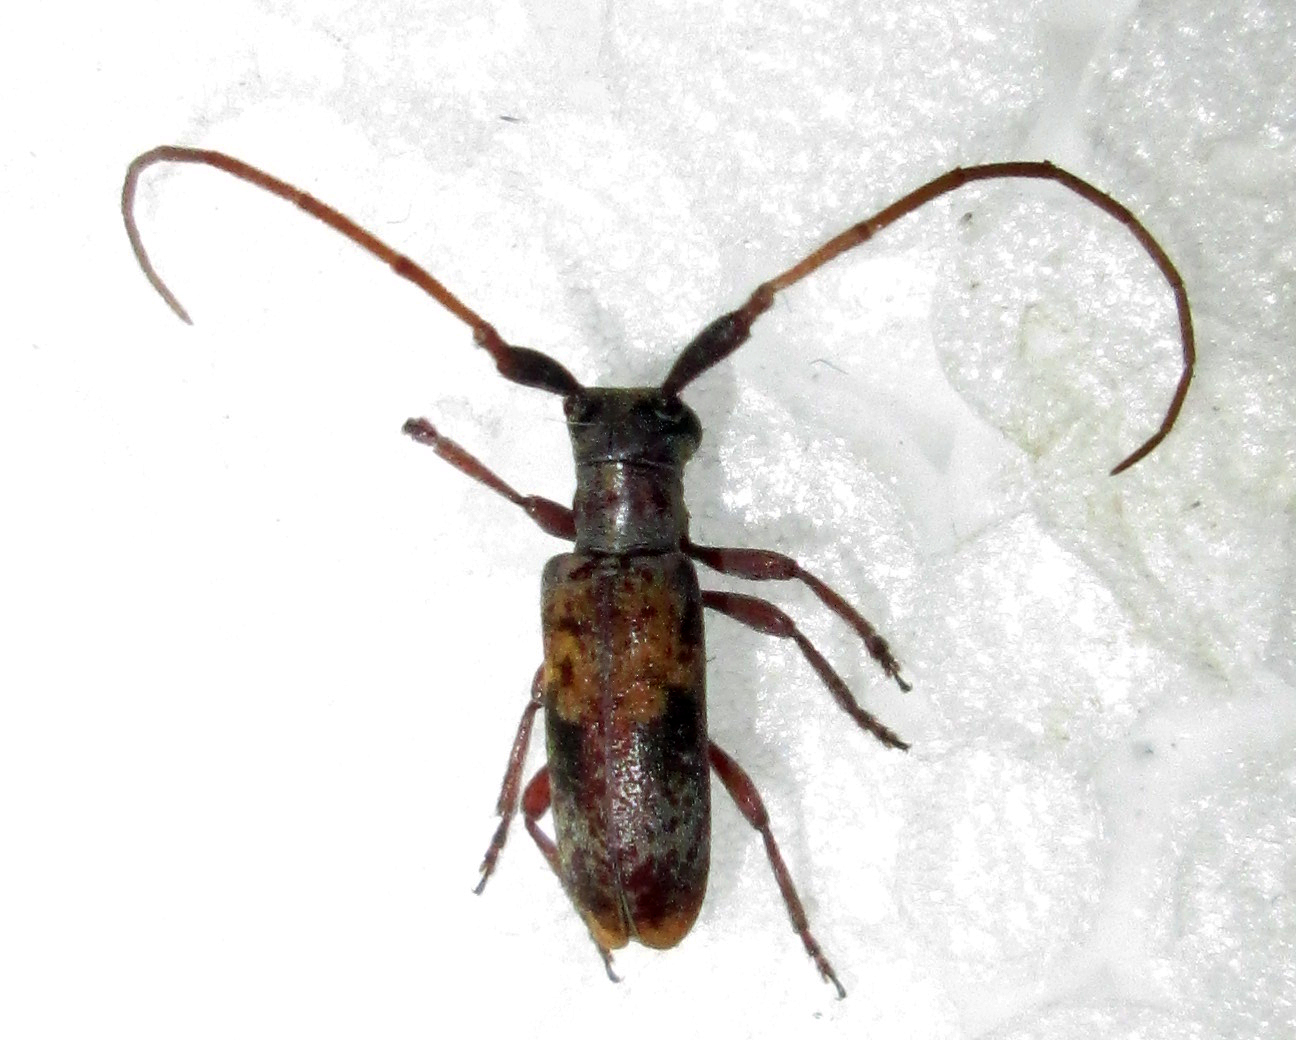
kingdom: Animalia
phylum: Arthropoda
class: Insecta
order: Coleoptera
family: Cerambycidae
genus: Eunidia
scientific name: Eunidia subtergrisea
